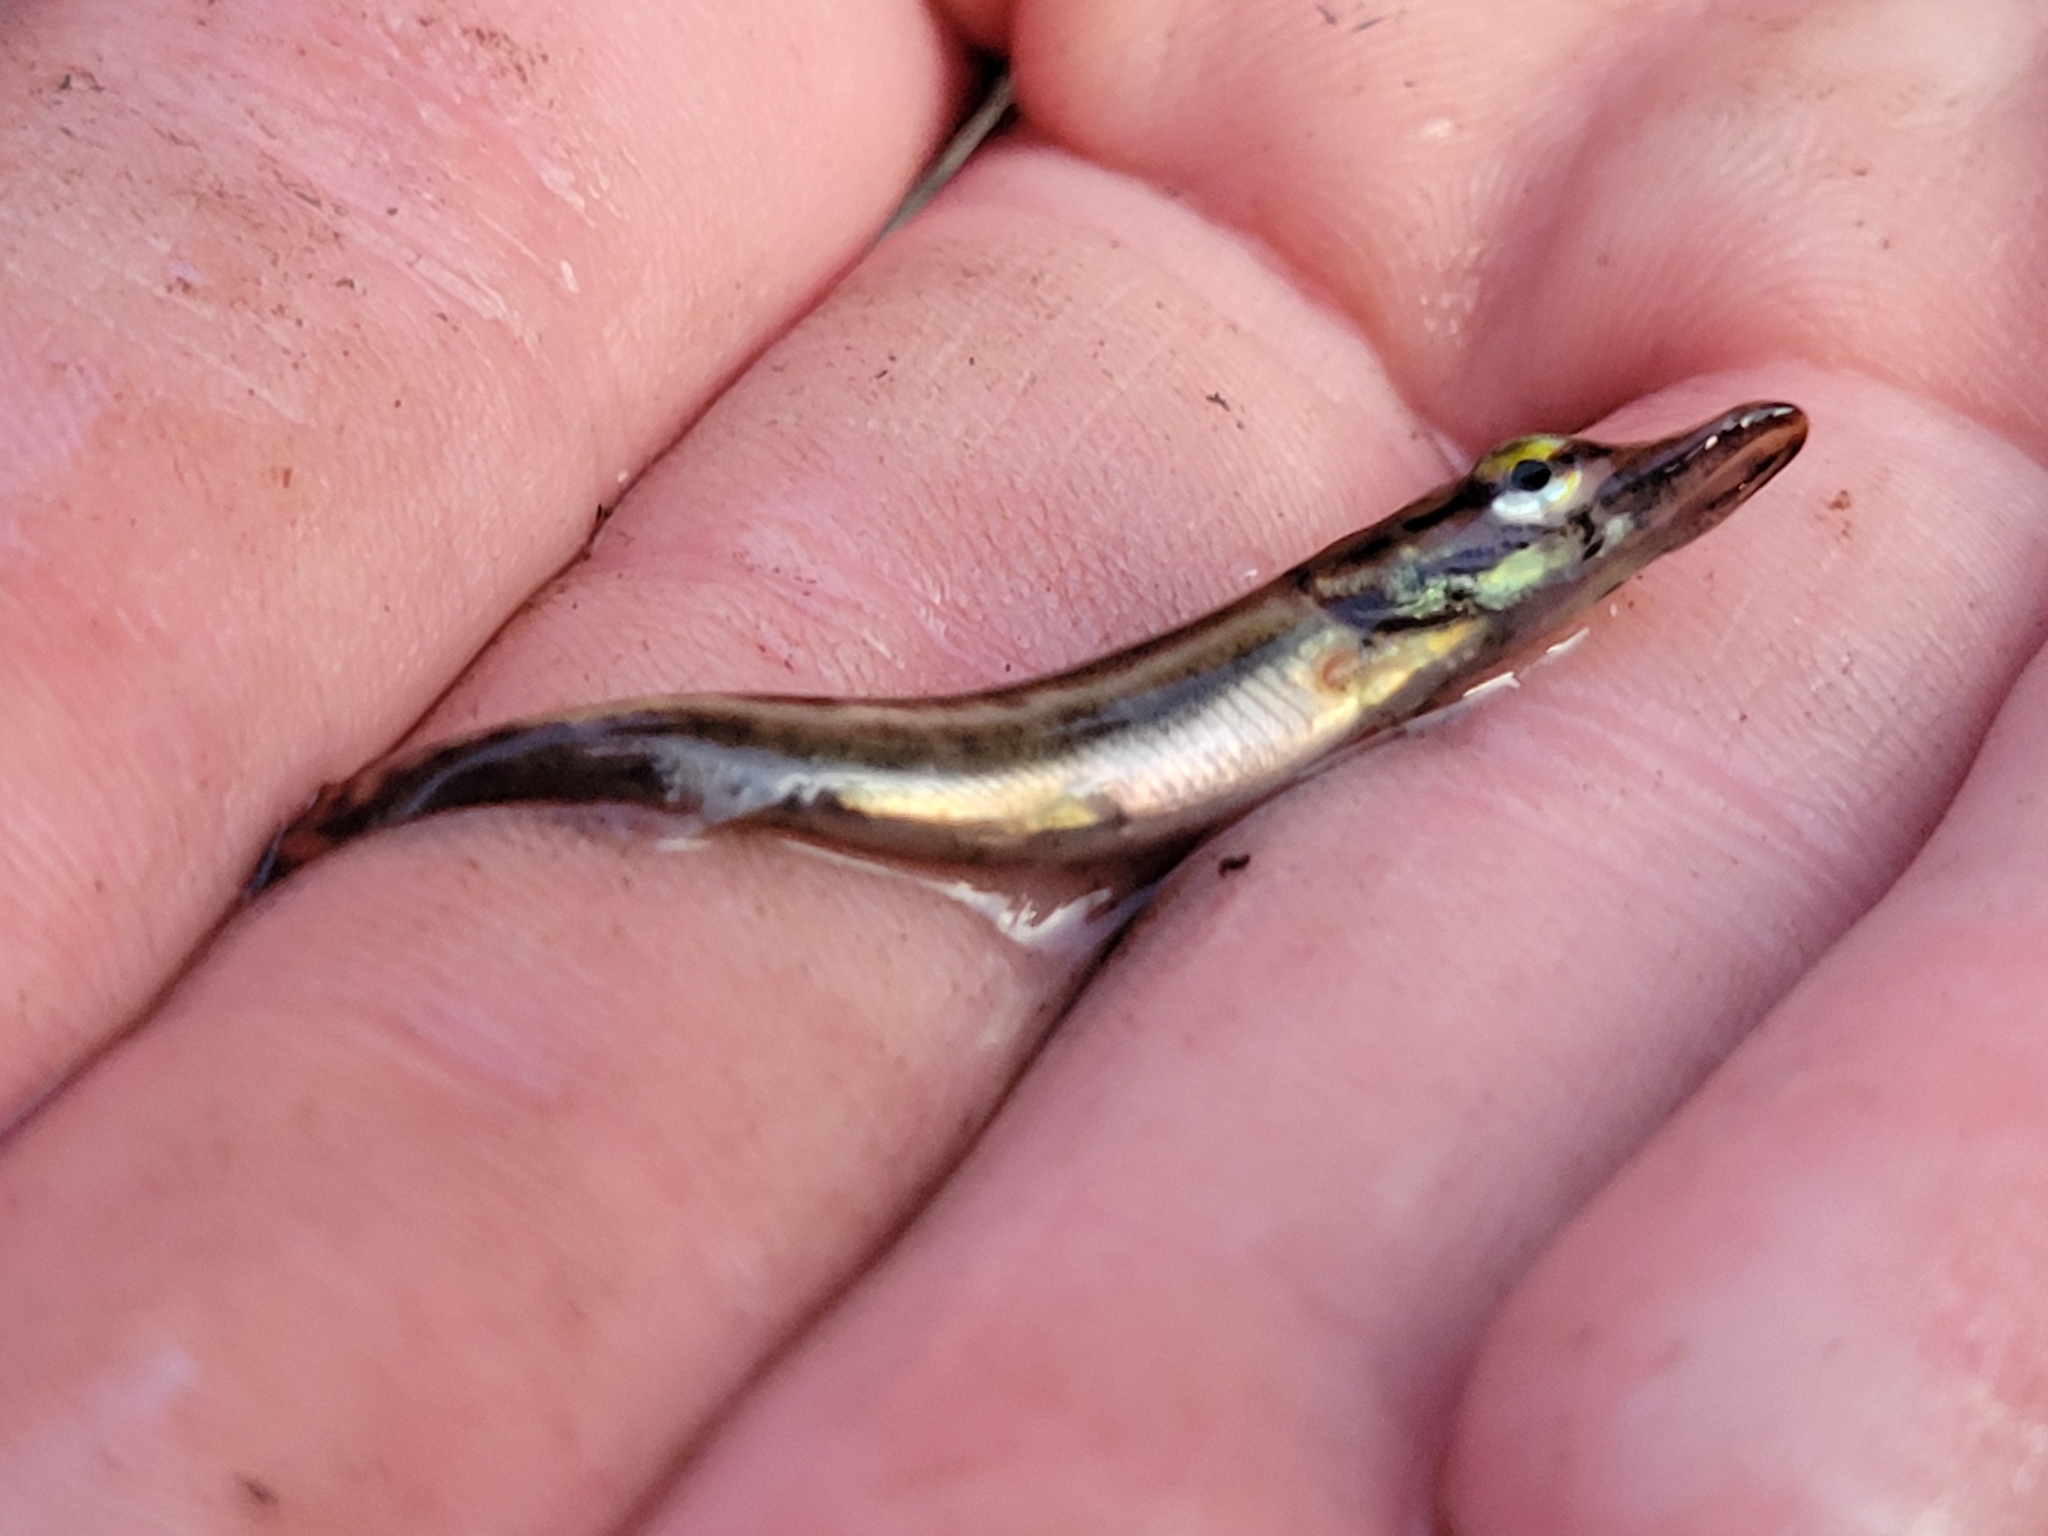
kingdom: Animalia
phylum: Chordata
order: Esociformes
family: Esocidae
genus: Esox
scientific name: Esox niger
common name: Chain pickerel
